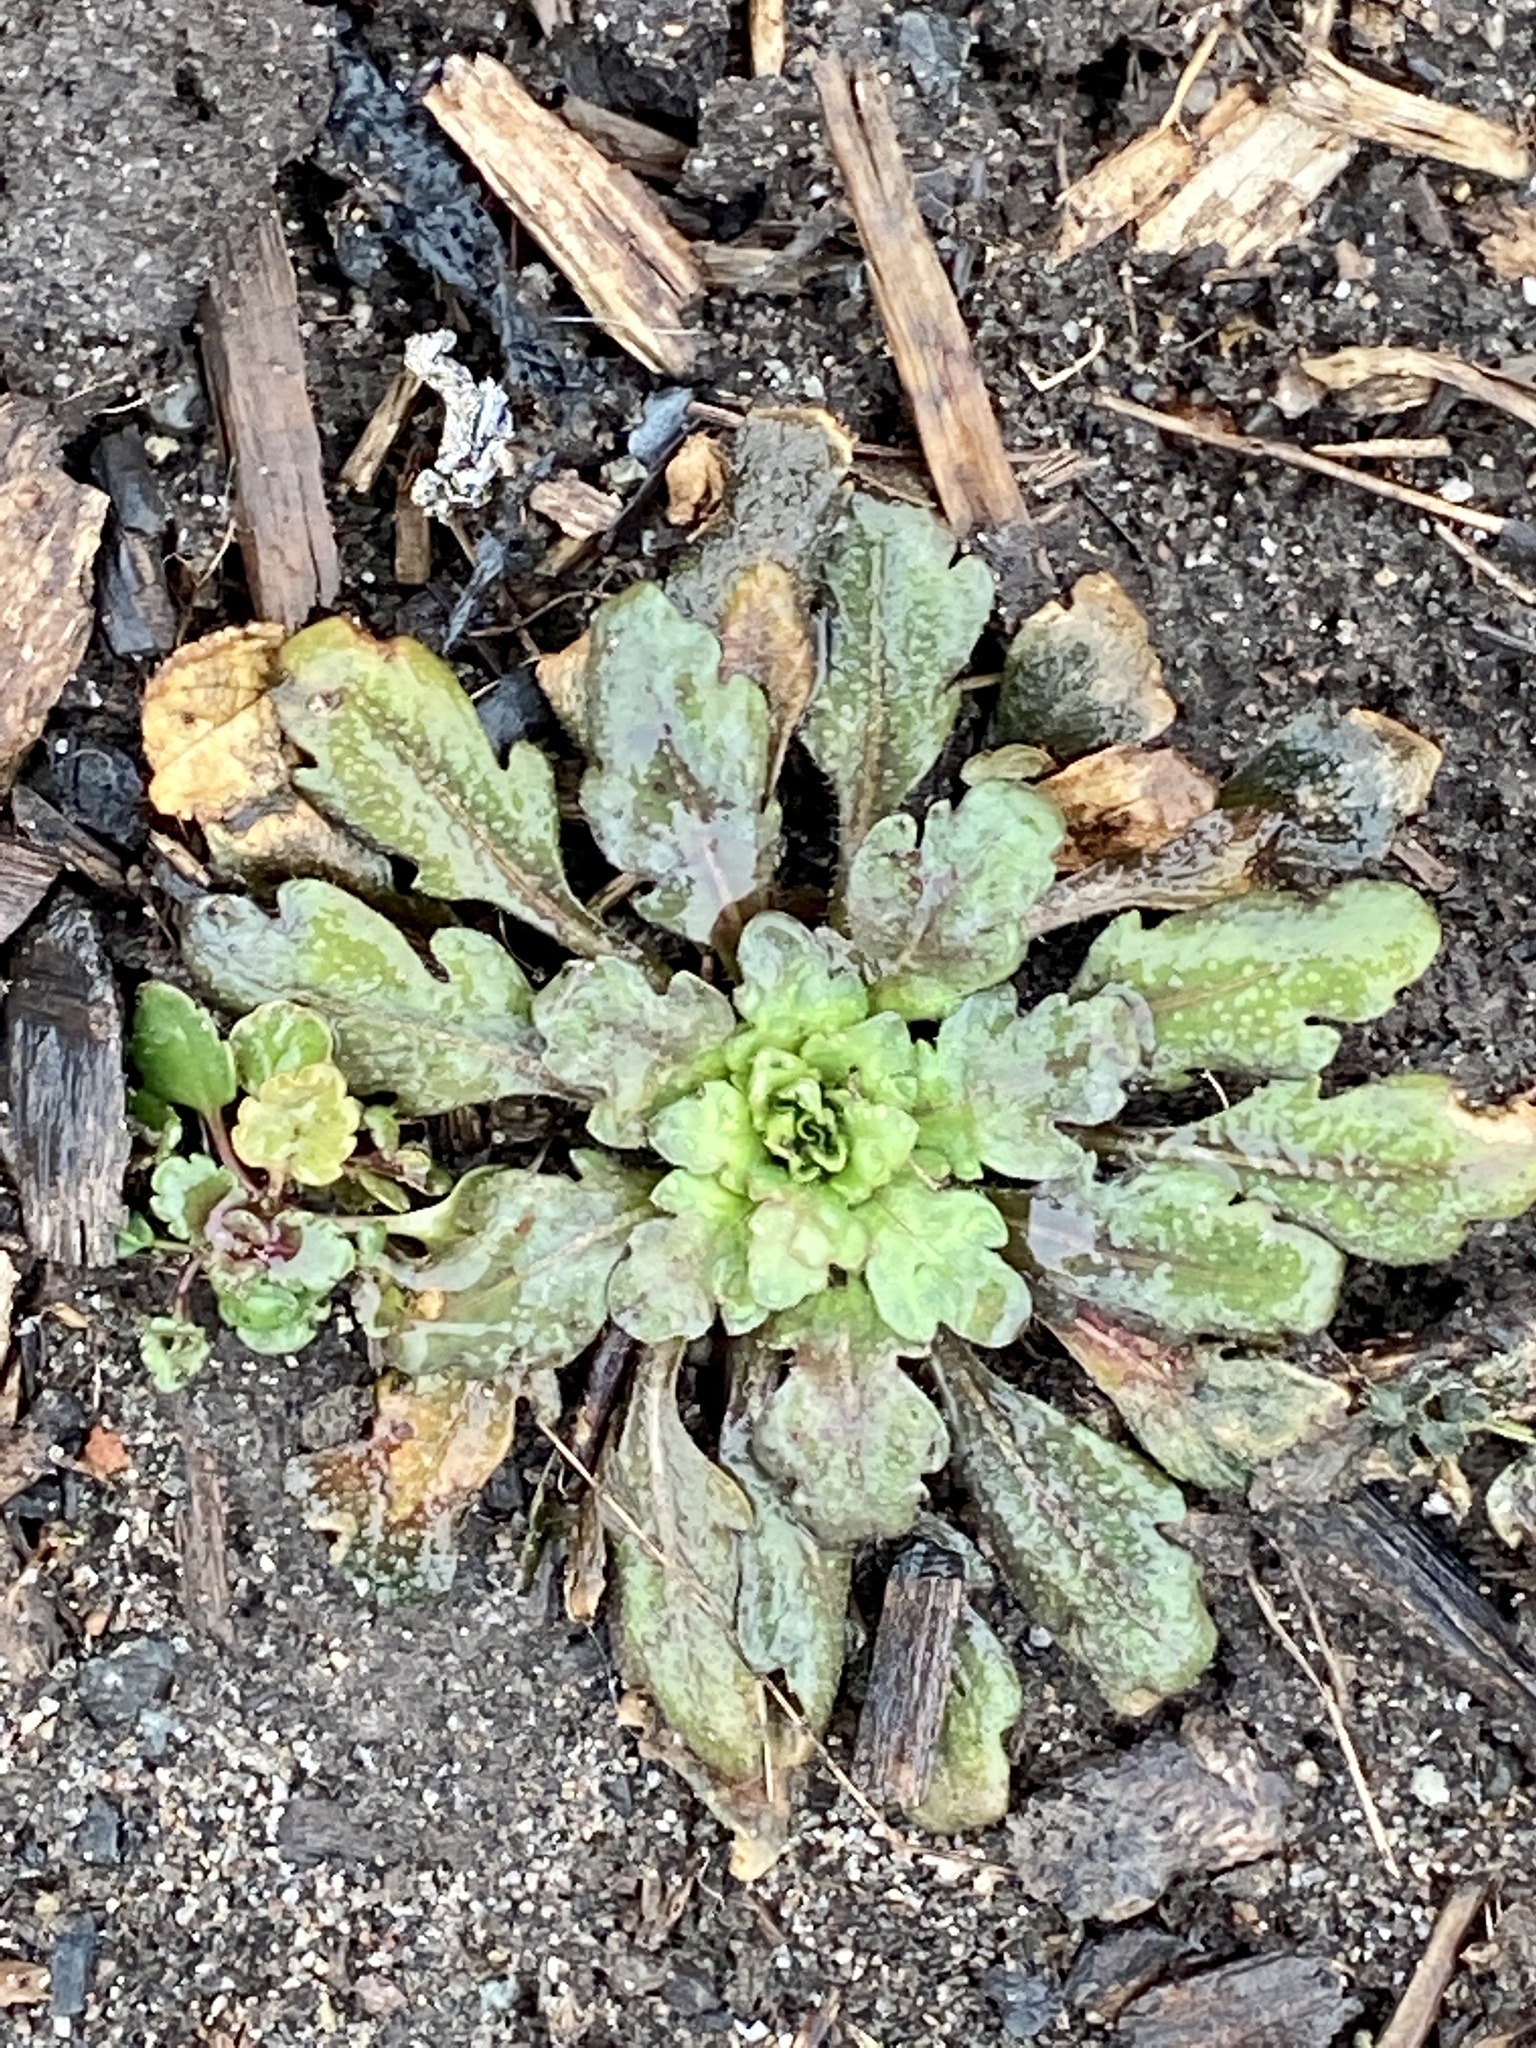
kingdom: Plantae
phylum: Tracheophyta
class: Magnoliopsida
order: Asterales
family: Asteraceae
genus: Erigeron
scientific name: Erigeron canadensis
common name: Canadian fleabane
